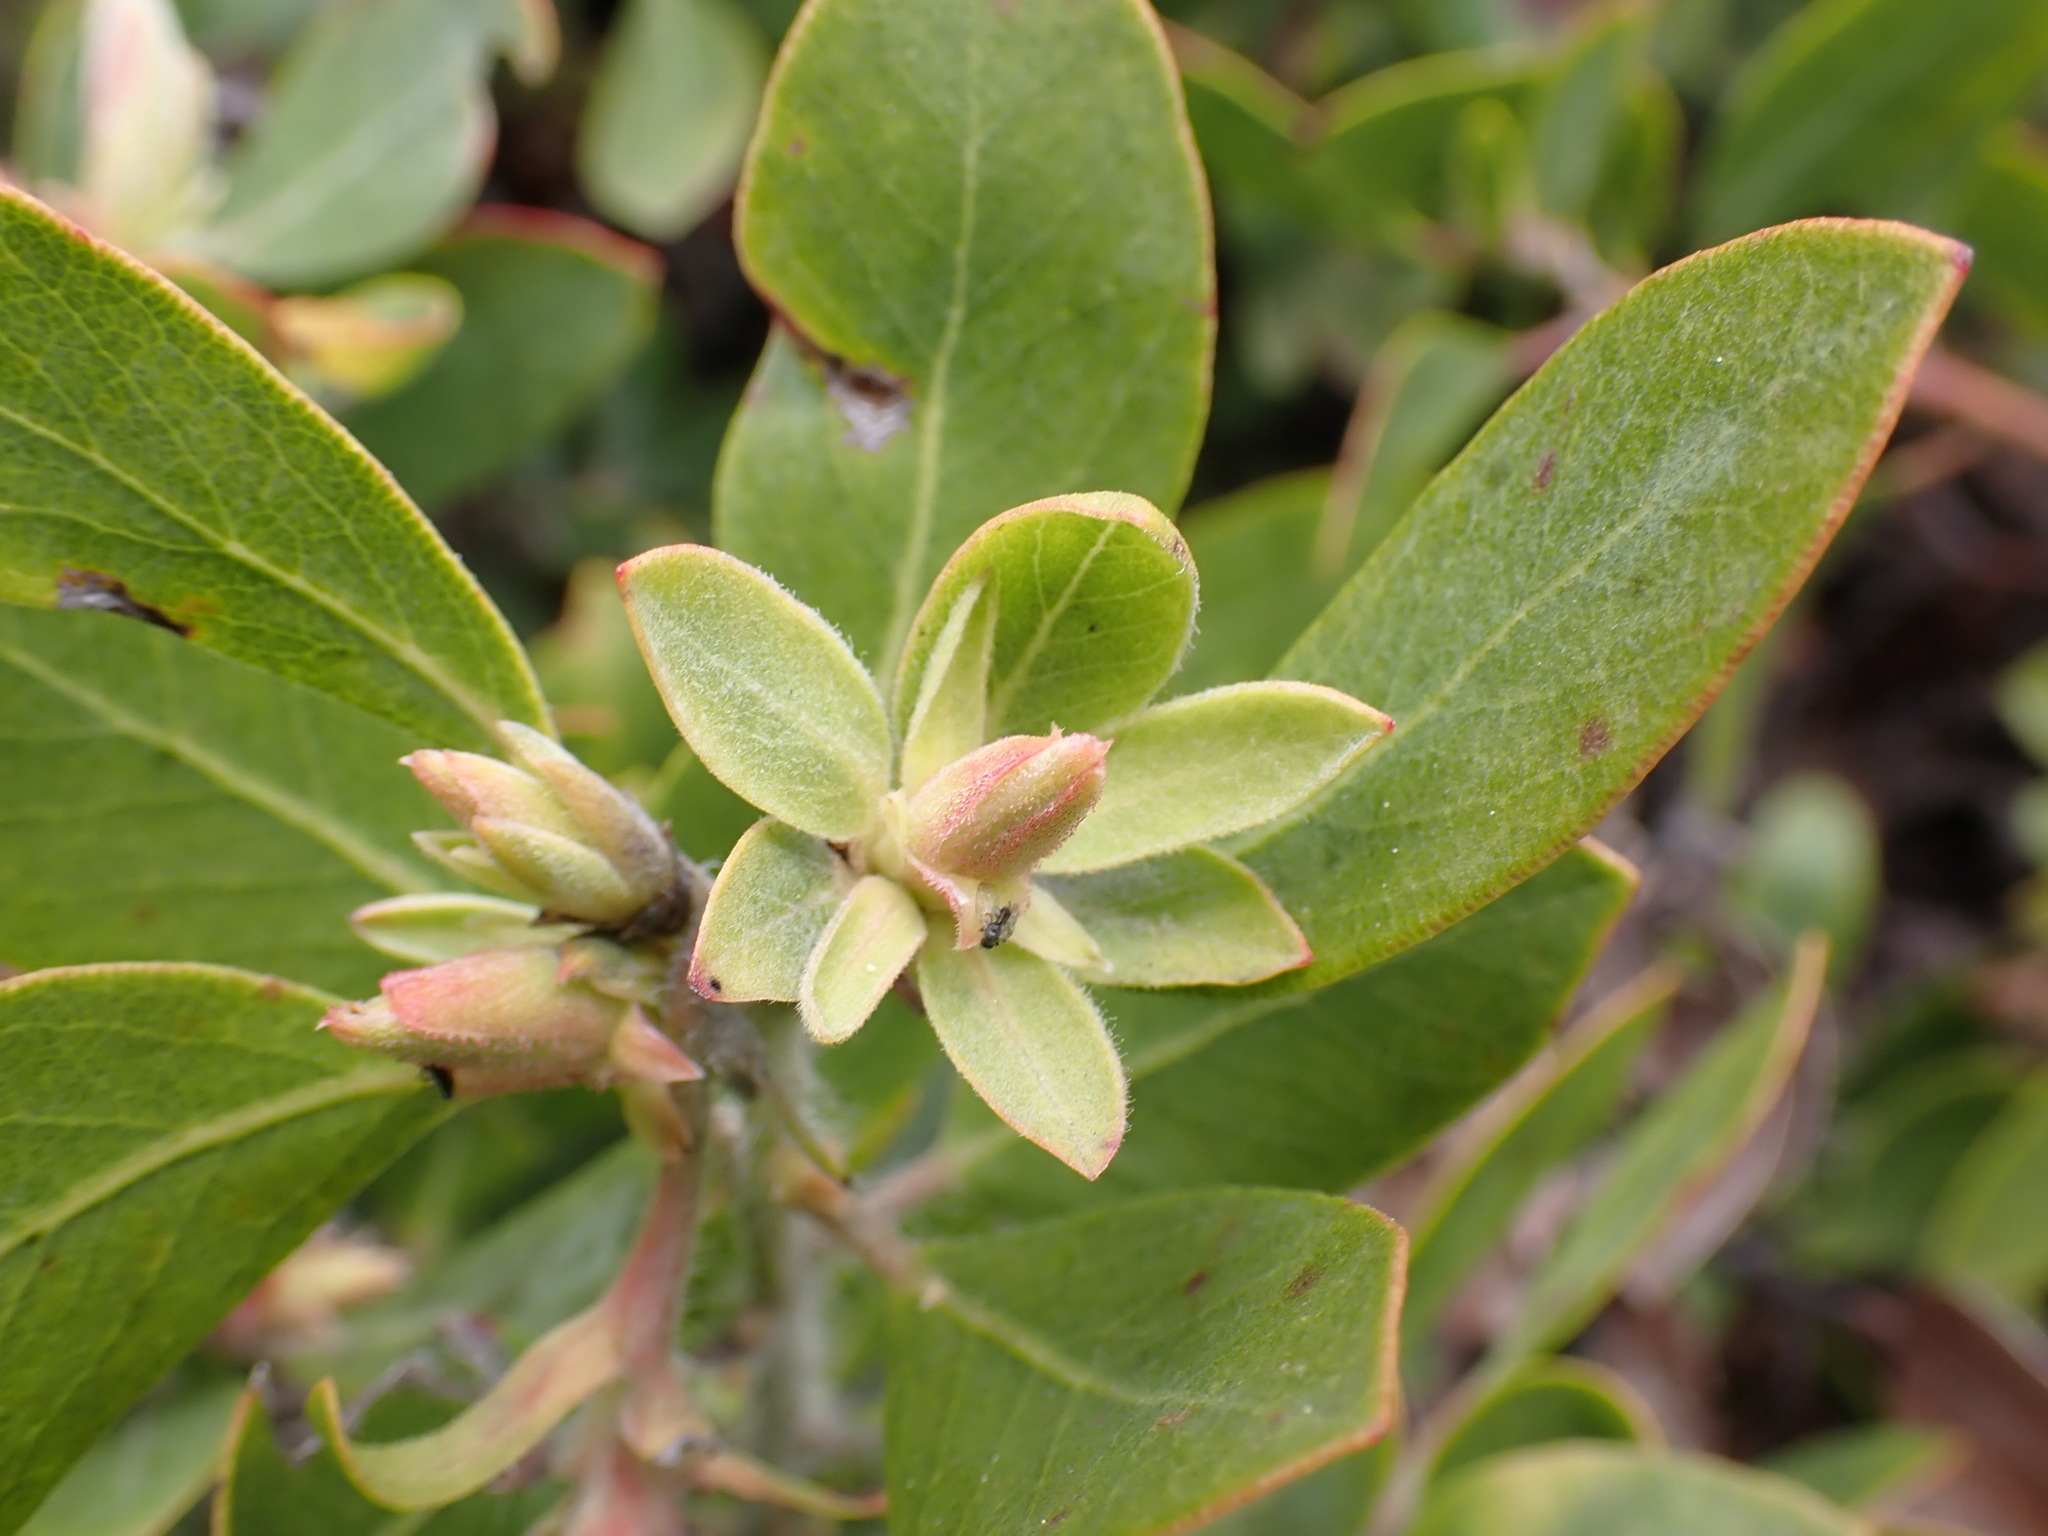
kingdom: Plantae
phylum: Tracheophyta
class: Magnoliopsida
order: Ericales
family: Ericaceae
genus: Arctostaphylos
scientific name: Arctostaphylos columbiana
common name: Bristly bearberry
